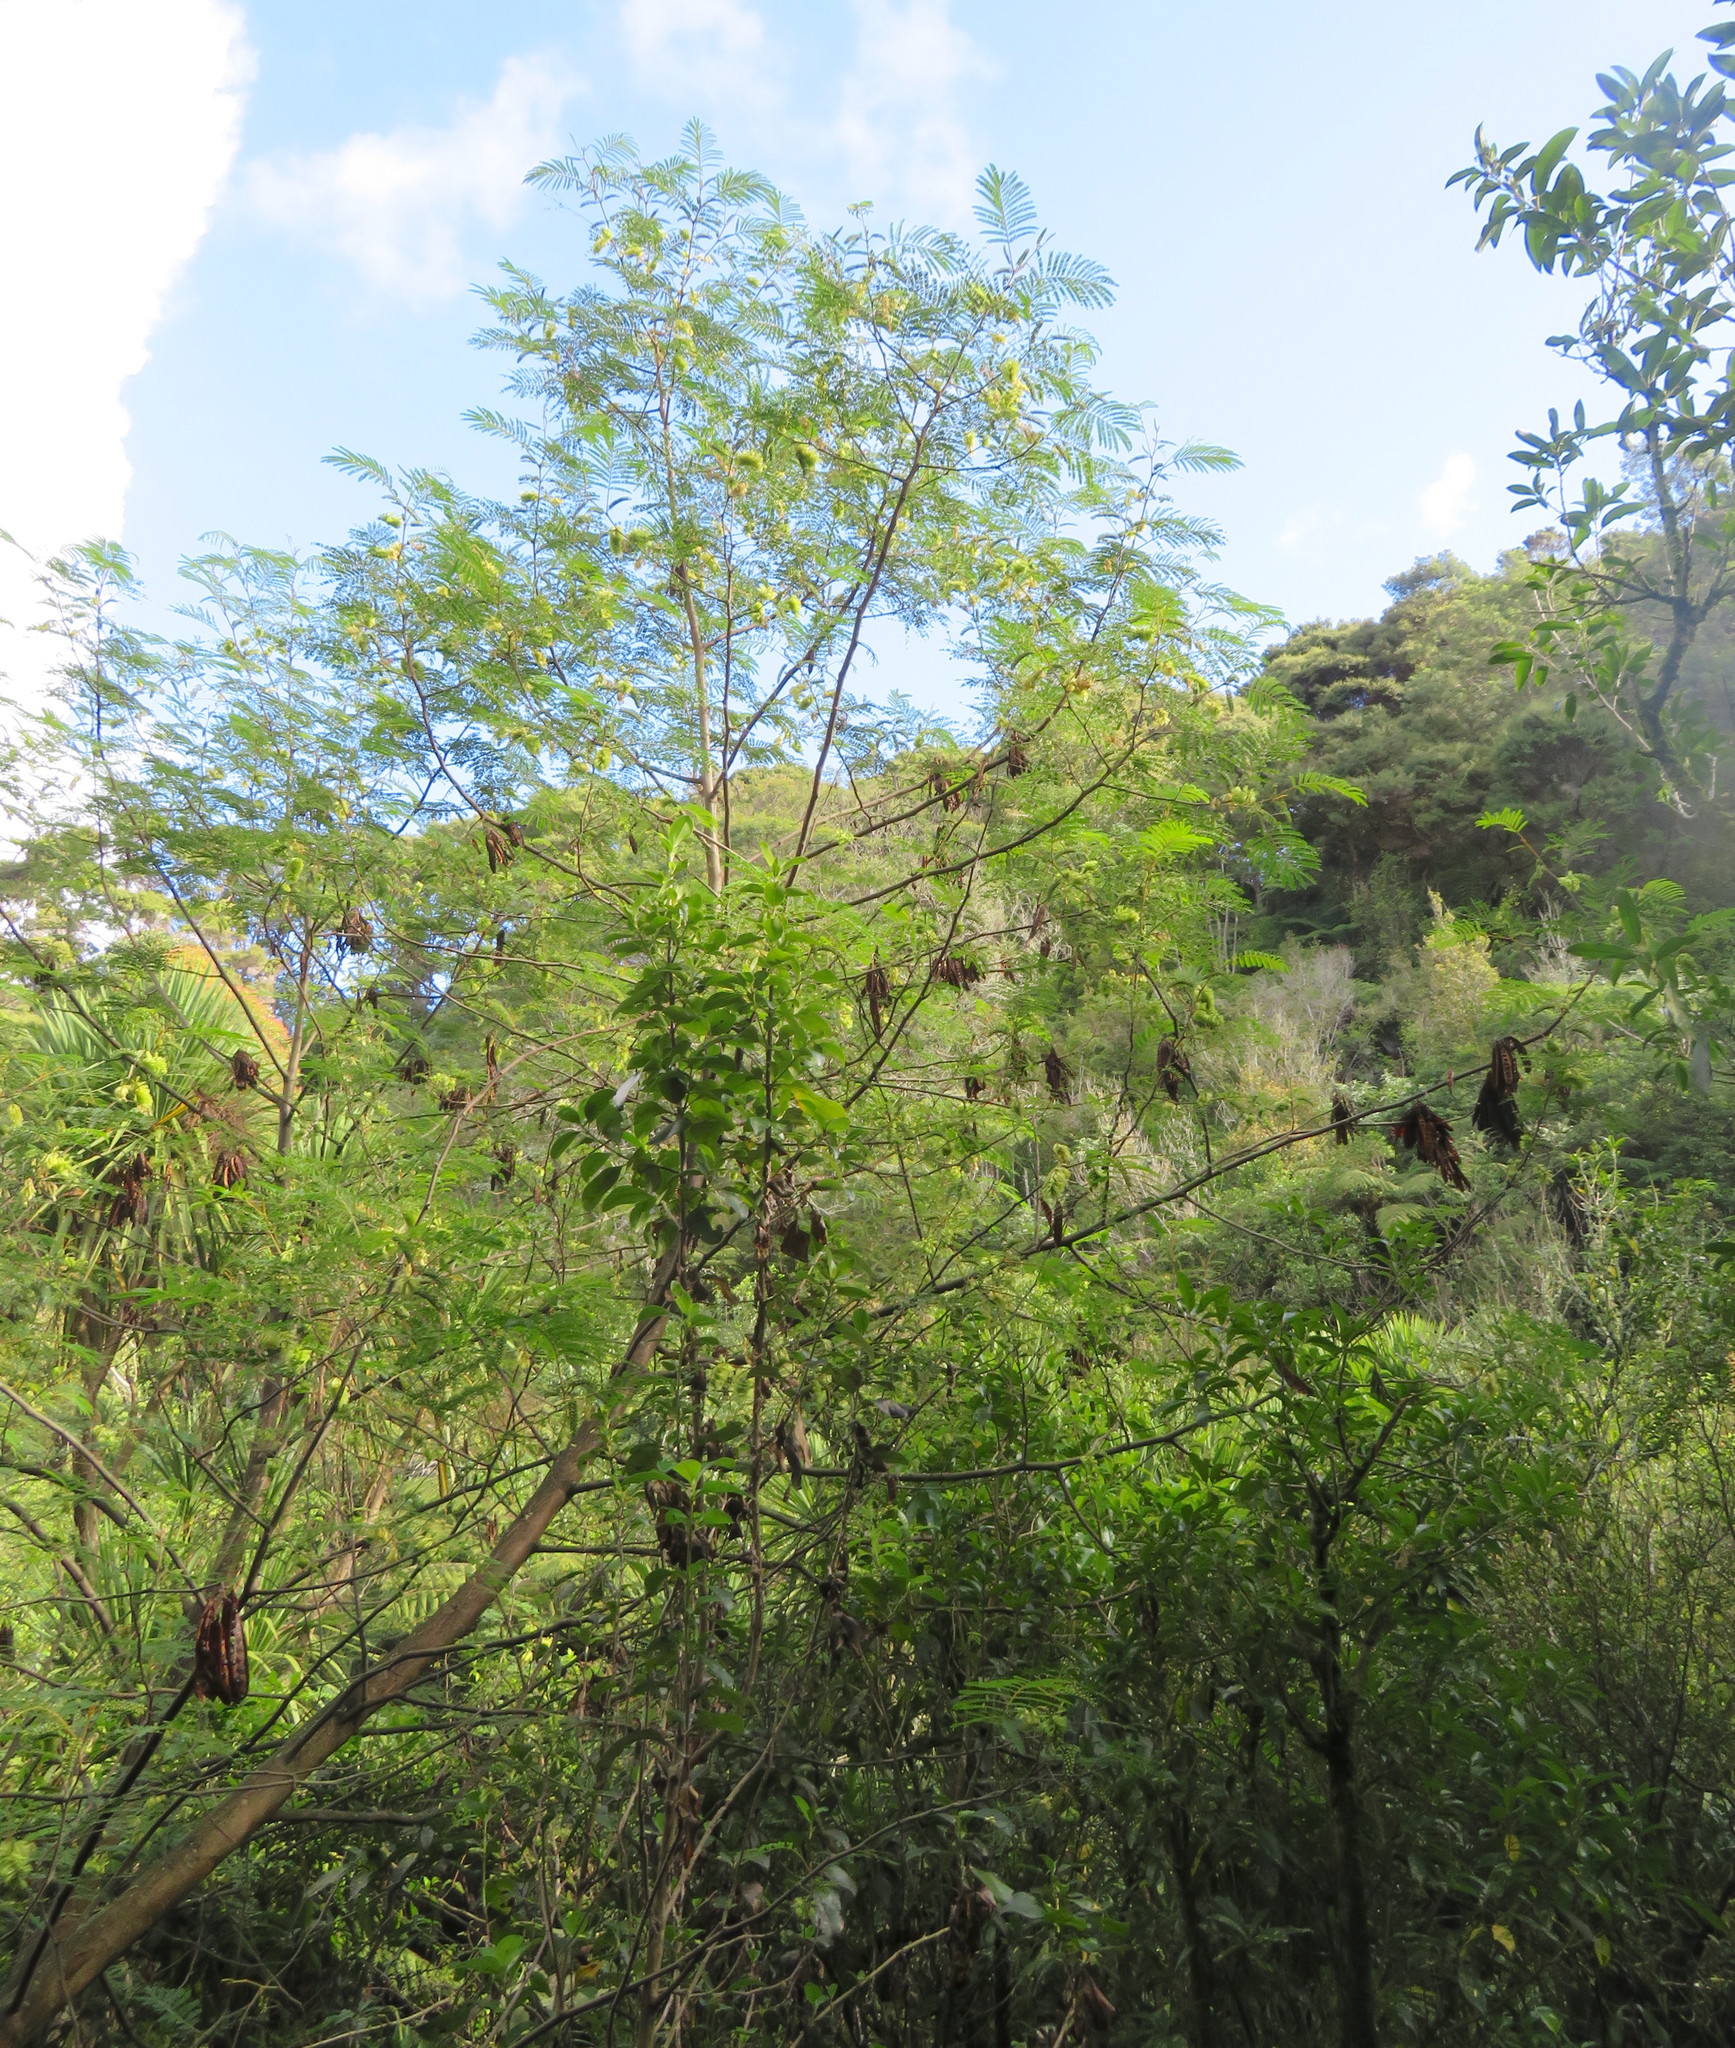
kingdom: Plantae
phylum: Tracheophyta
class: Magnoliopsida
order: Fabales
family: Fabaceae
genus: Paraserianthes
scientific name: Paraserianthes lophantha
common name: Plume albizia
